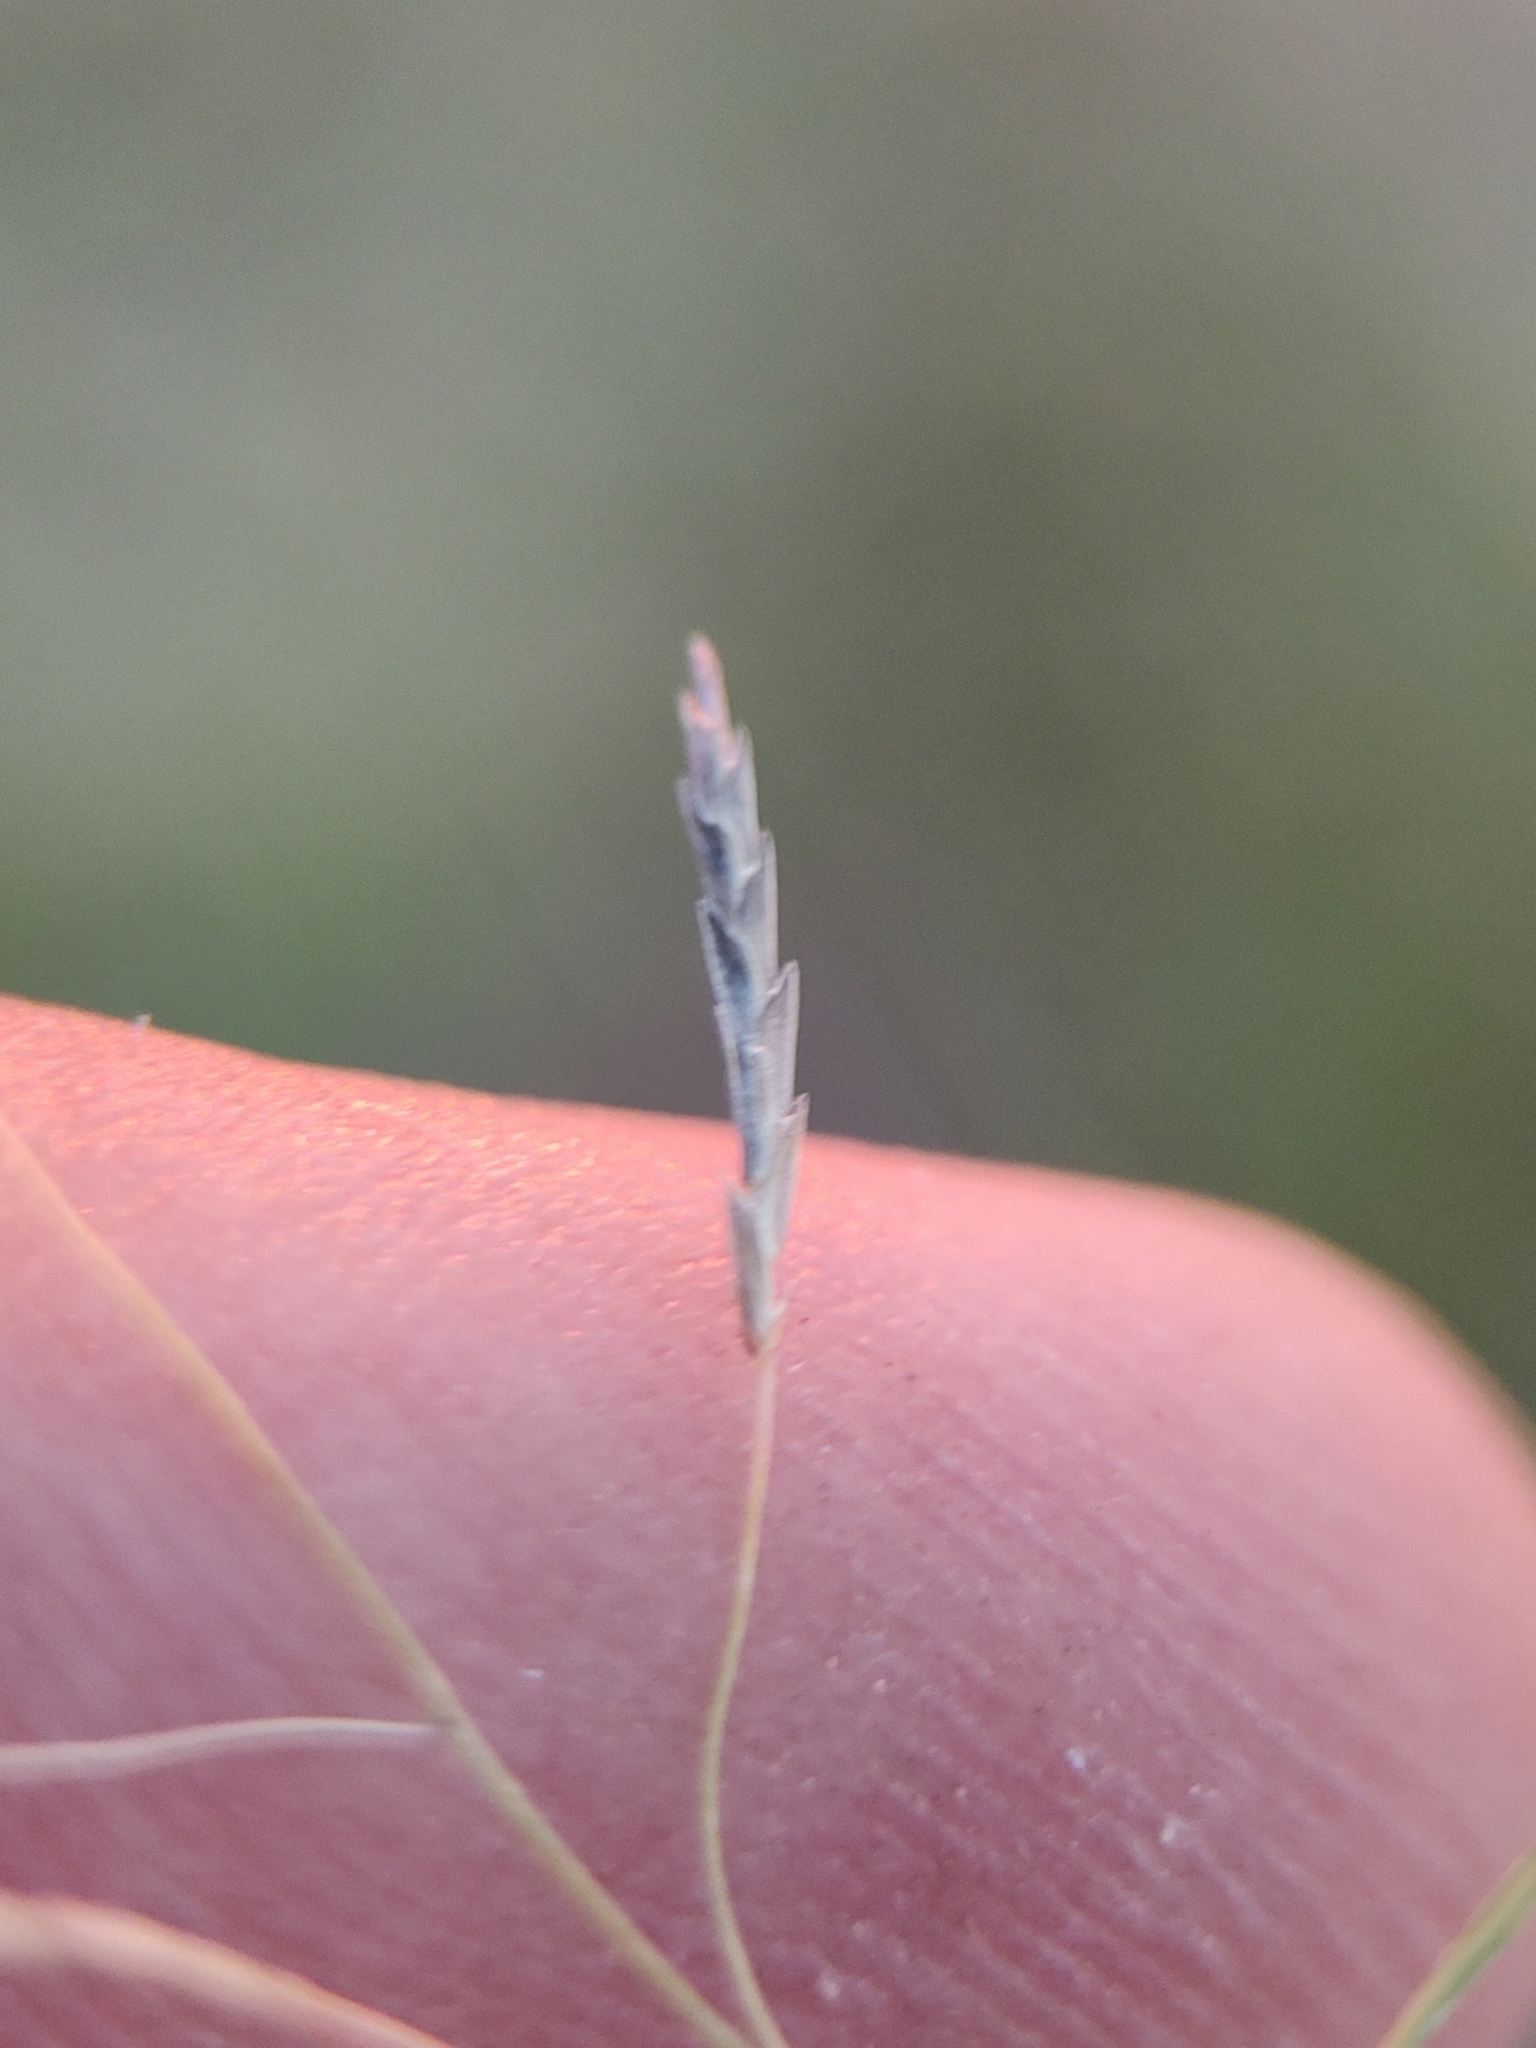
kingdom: Plantae
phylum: Tracheophyta
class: Liliopsida
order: Poales
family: Poaceae
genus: Eragrostis
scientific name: Eragrostis tenuifolia
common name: Elastic grass
